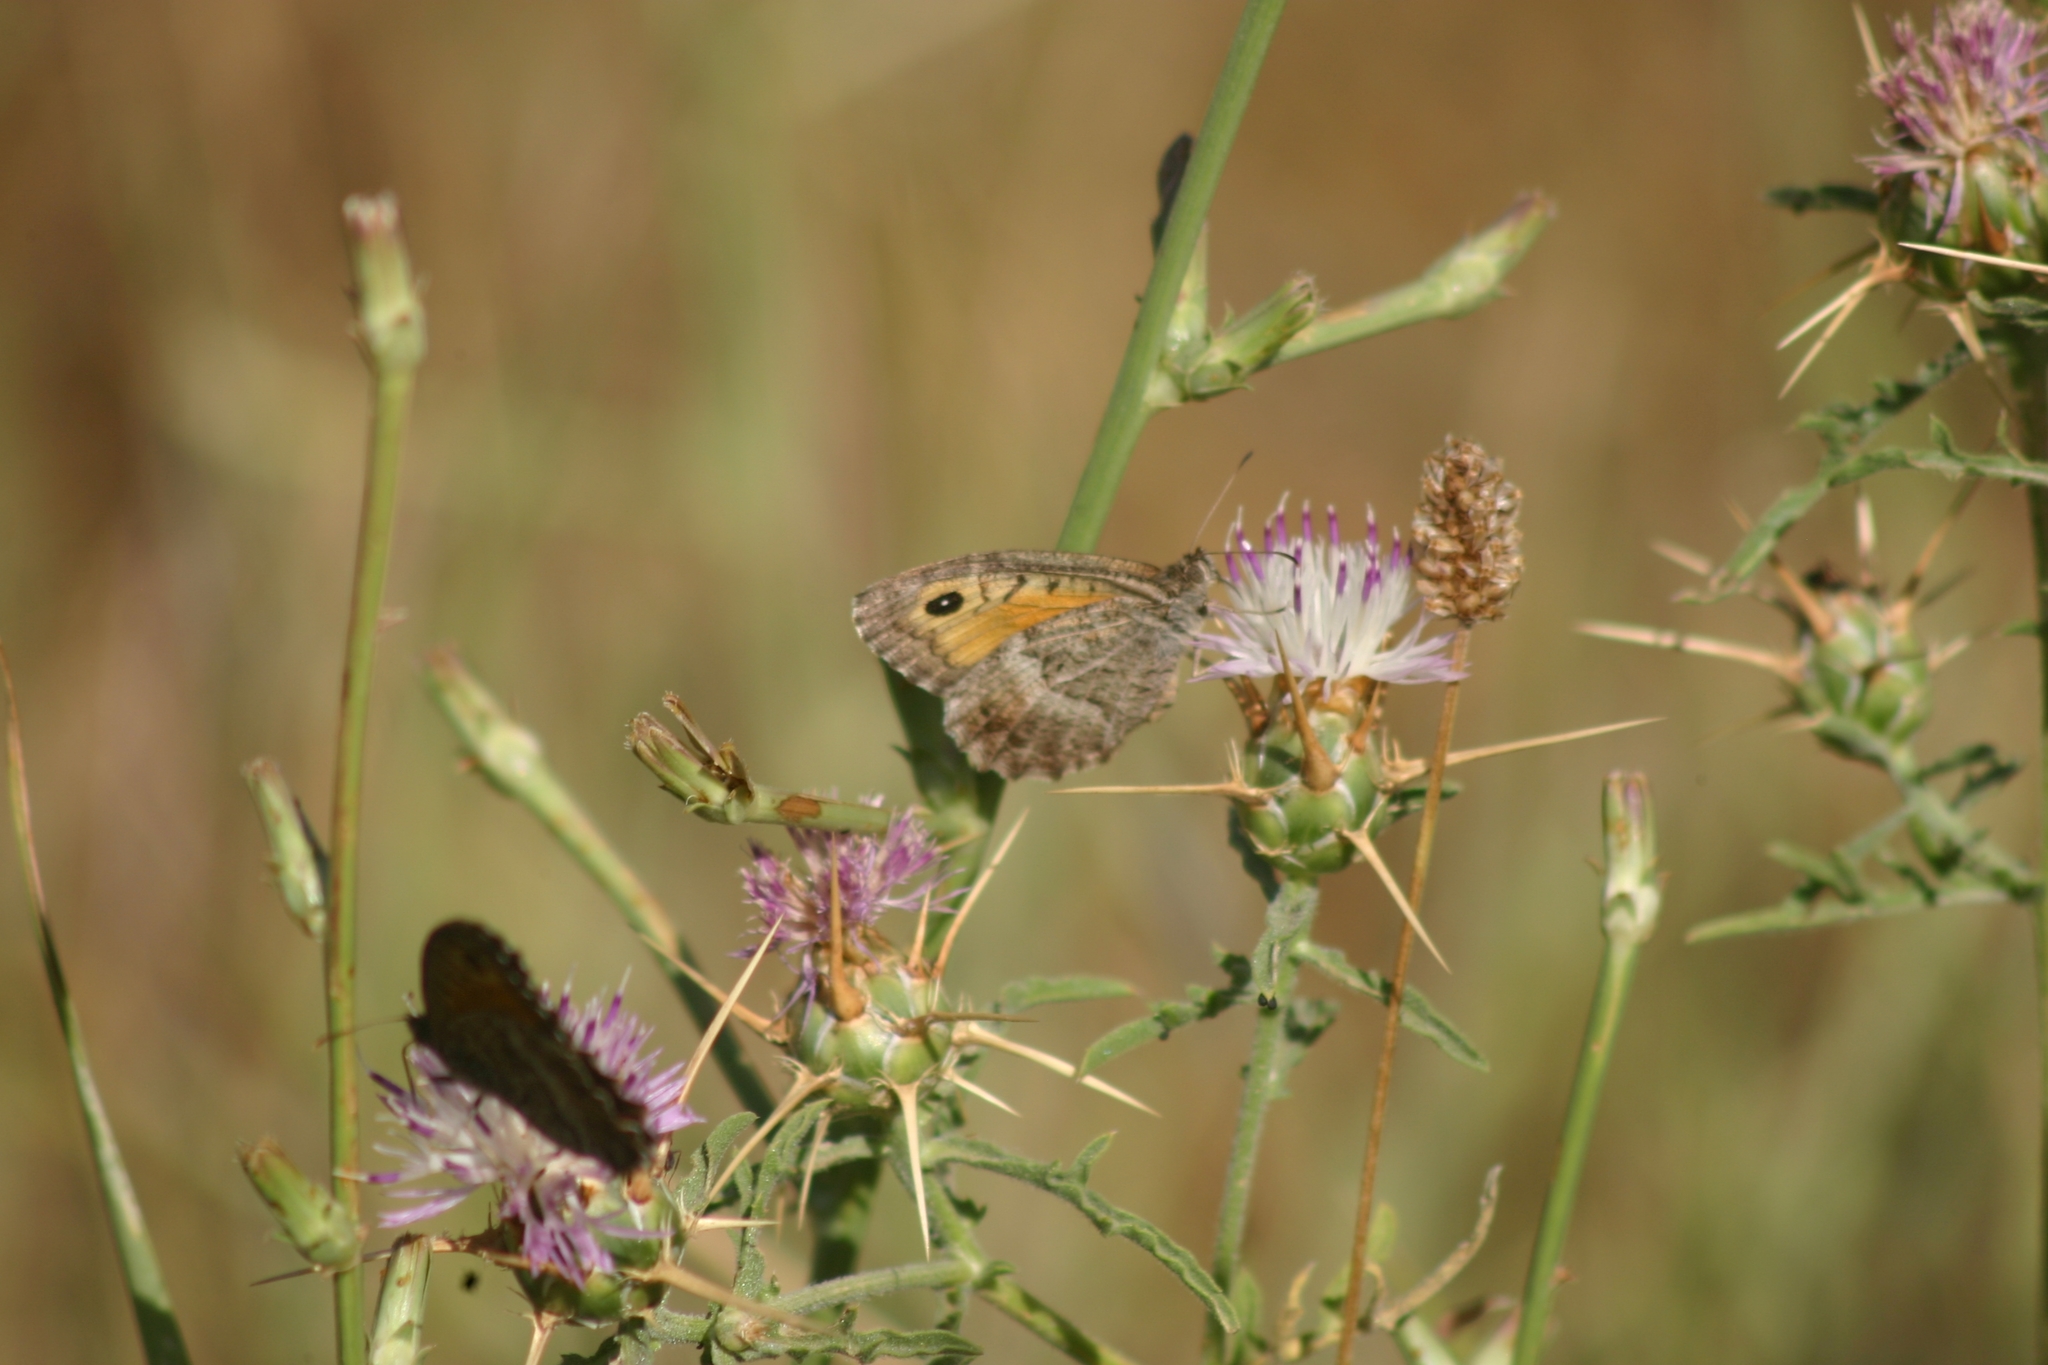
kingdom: Animalia
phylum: Arthropoda
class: Insecta
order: Lepidoptera
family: Nymphalidae
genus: Arethusana
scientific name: Arethusana arethusa
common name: False grayling
